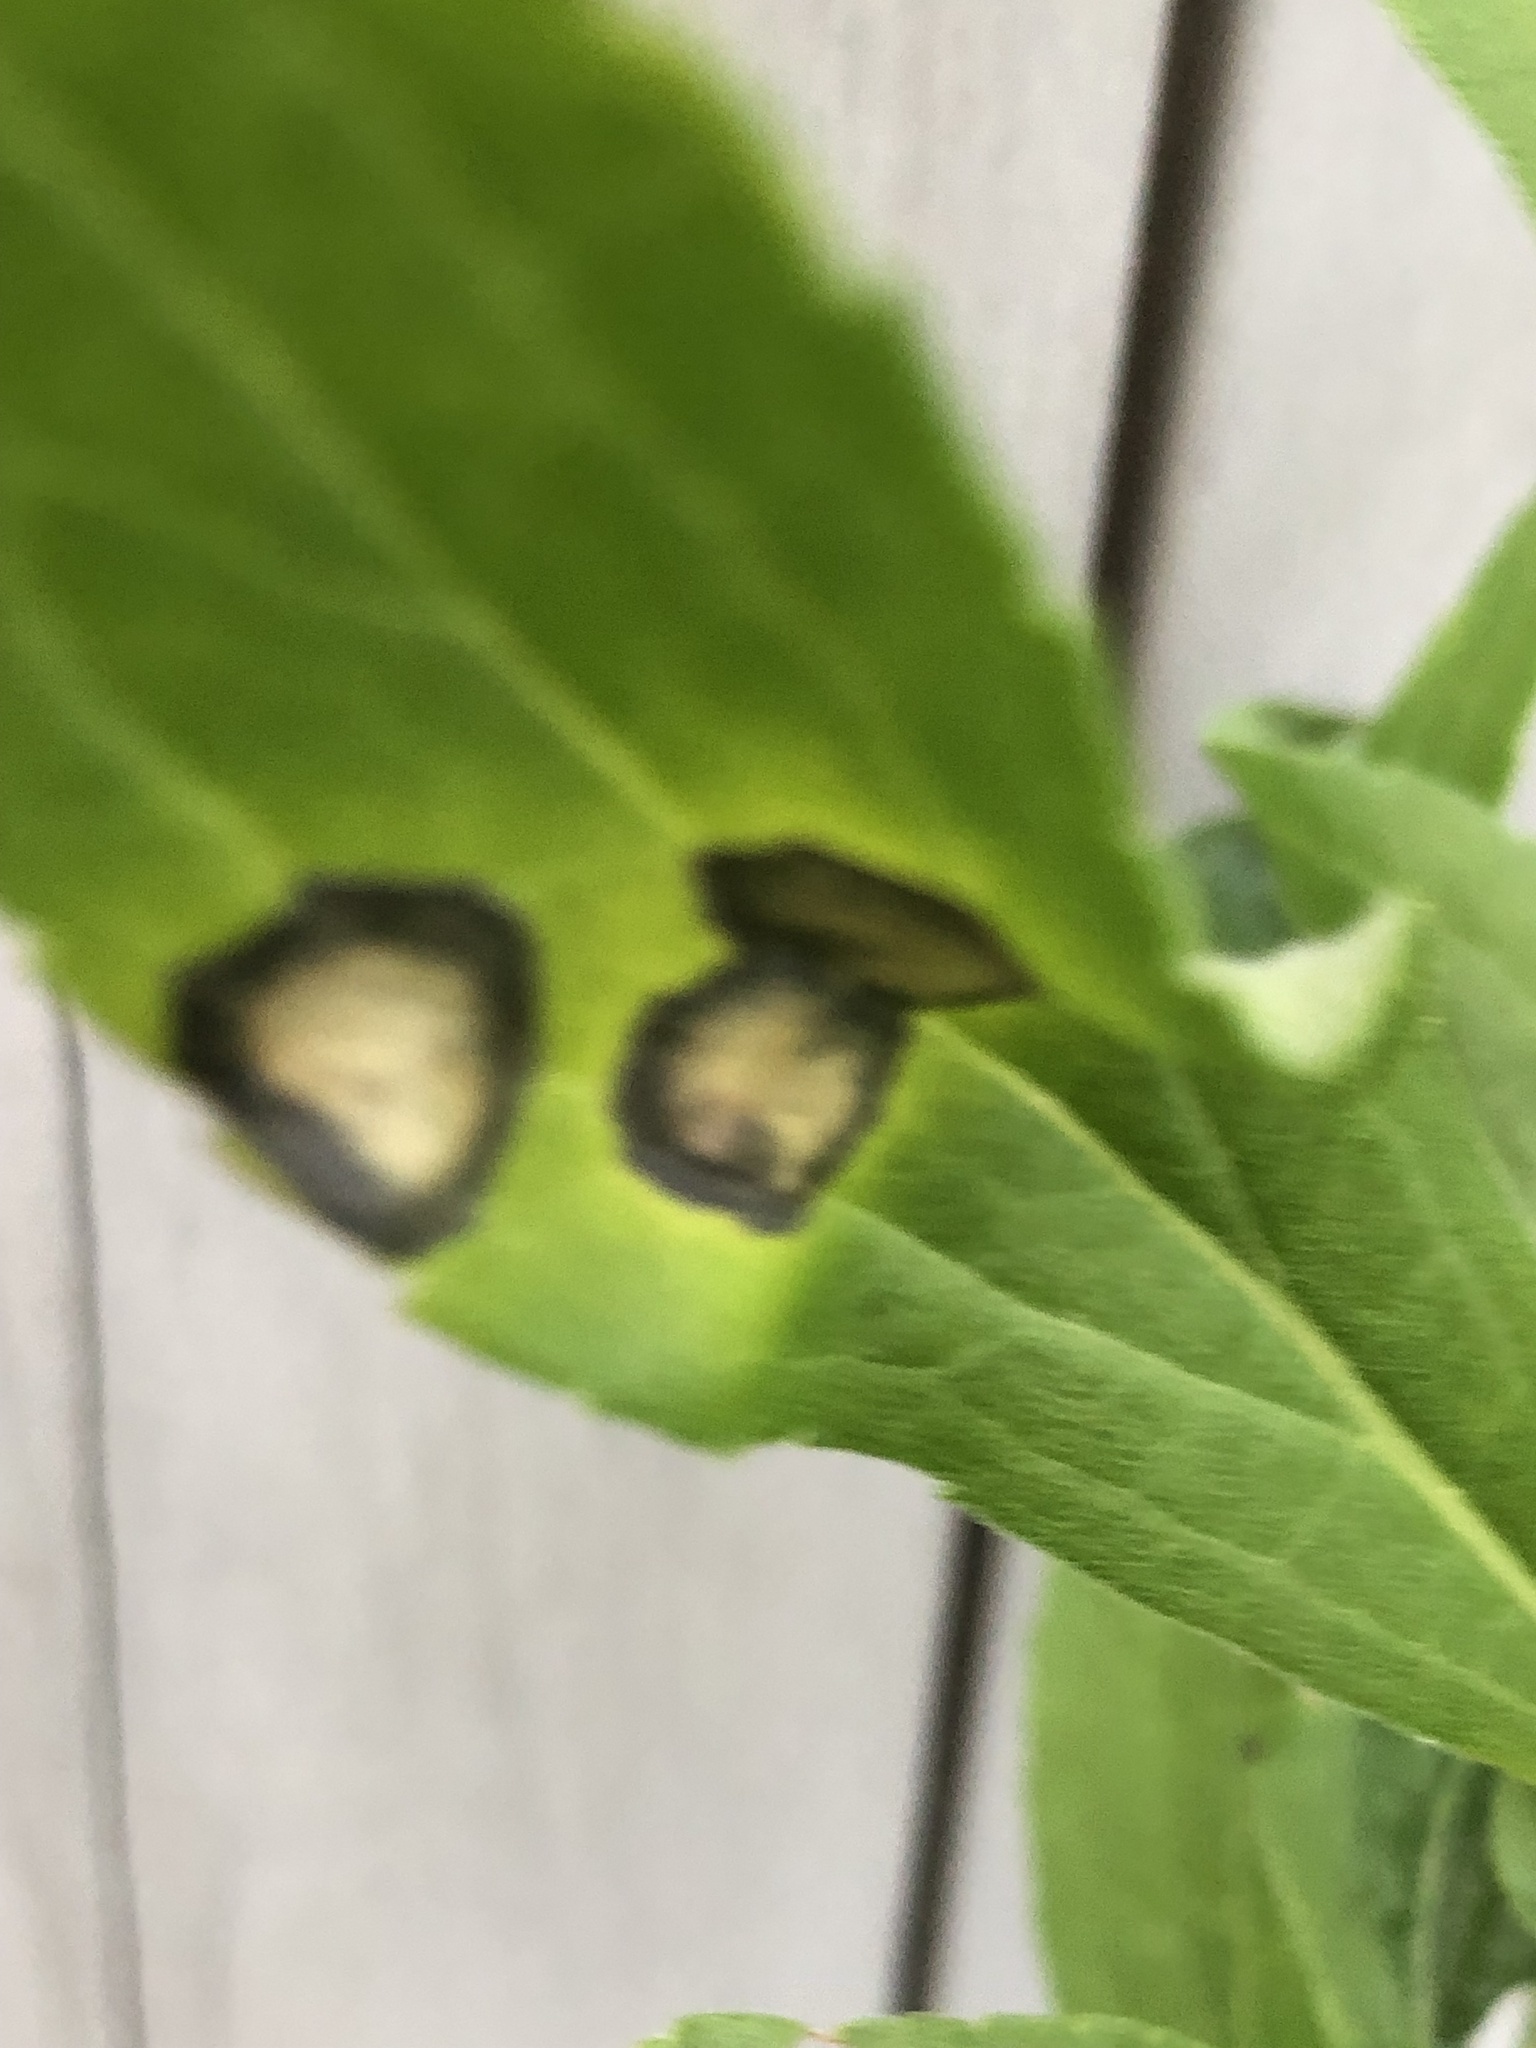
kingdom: Animalia
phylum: Arthropoda
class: Insecta
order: Diptera
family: Cecidomyiidae
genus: Asteromyia
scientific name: Asteromyia carbonifera
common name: Carbonifera goldenrod gall midge
